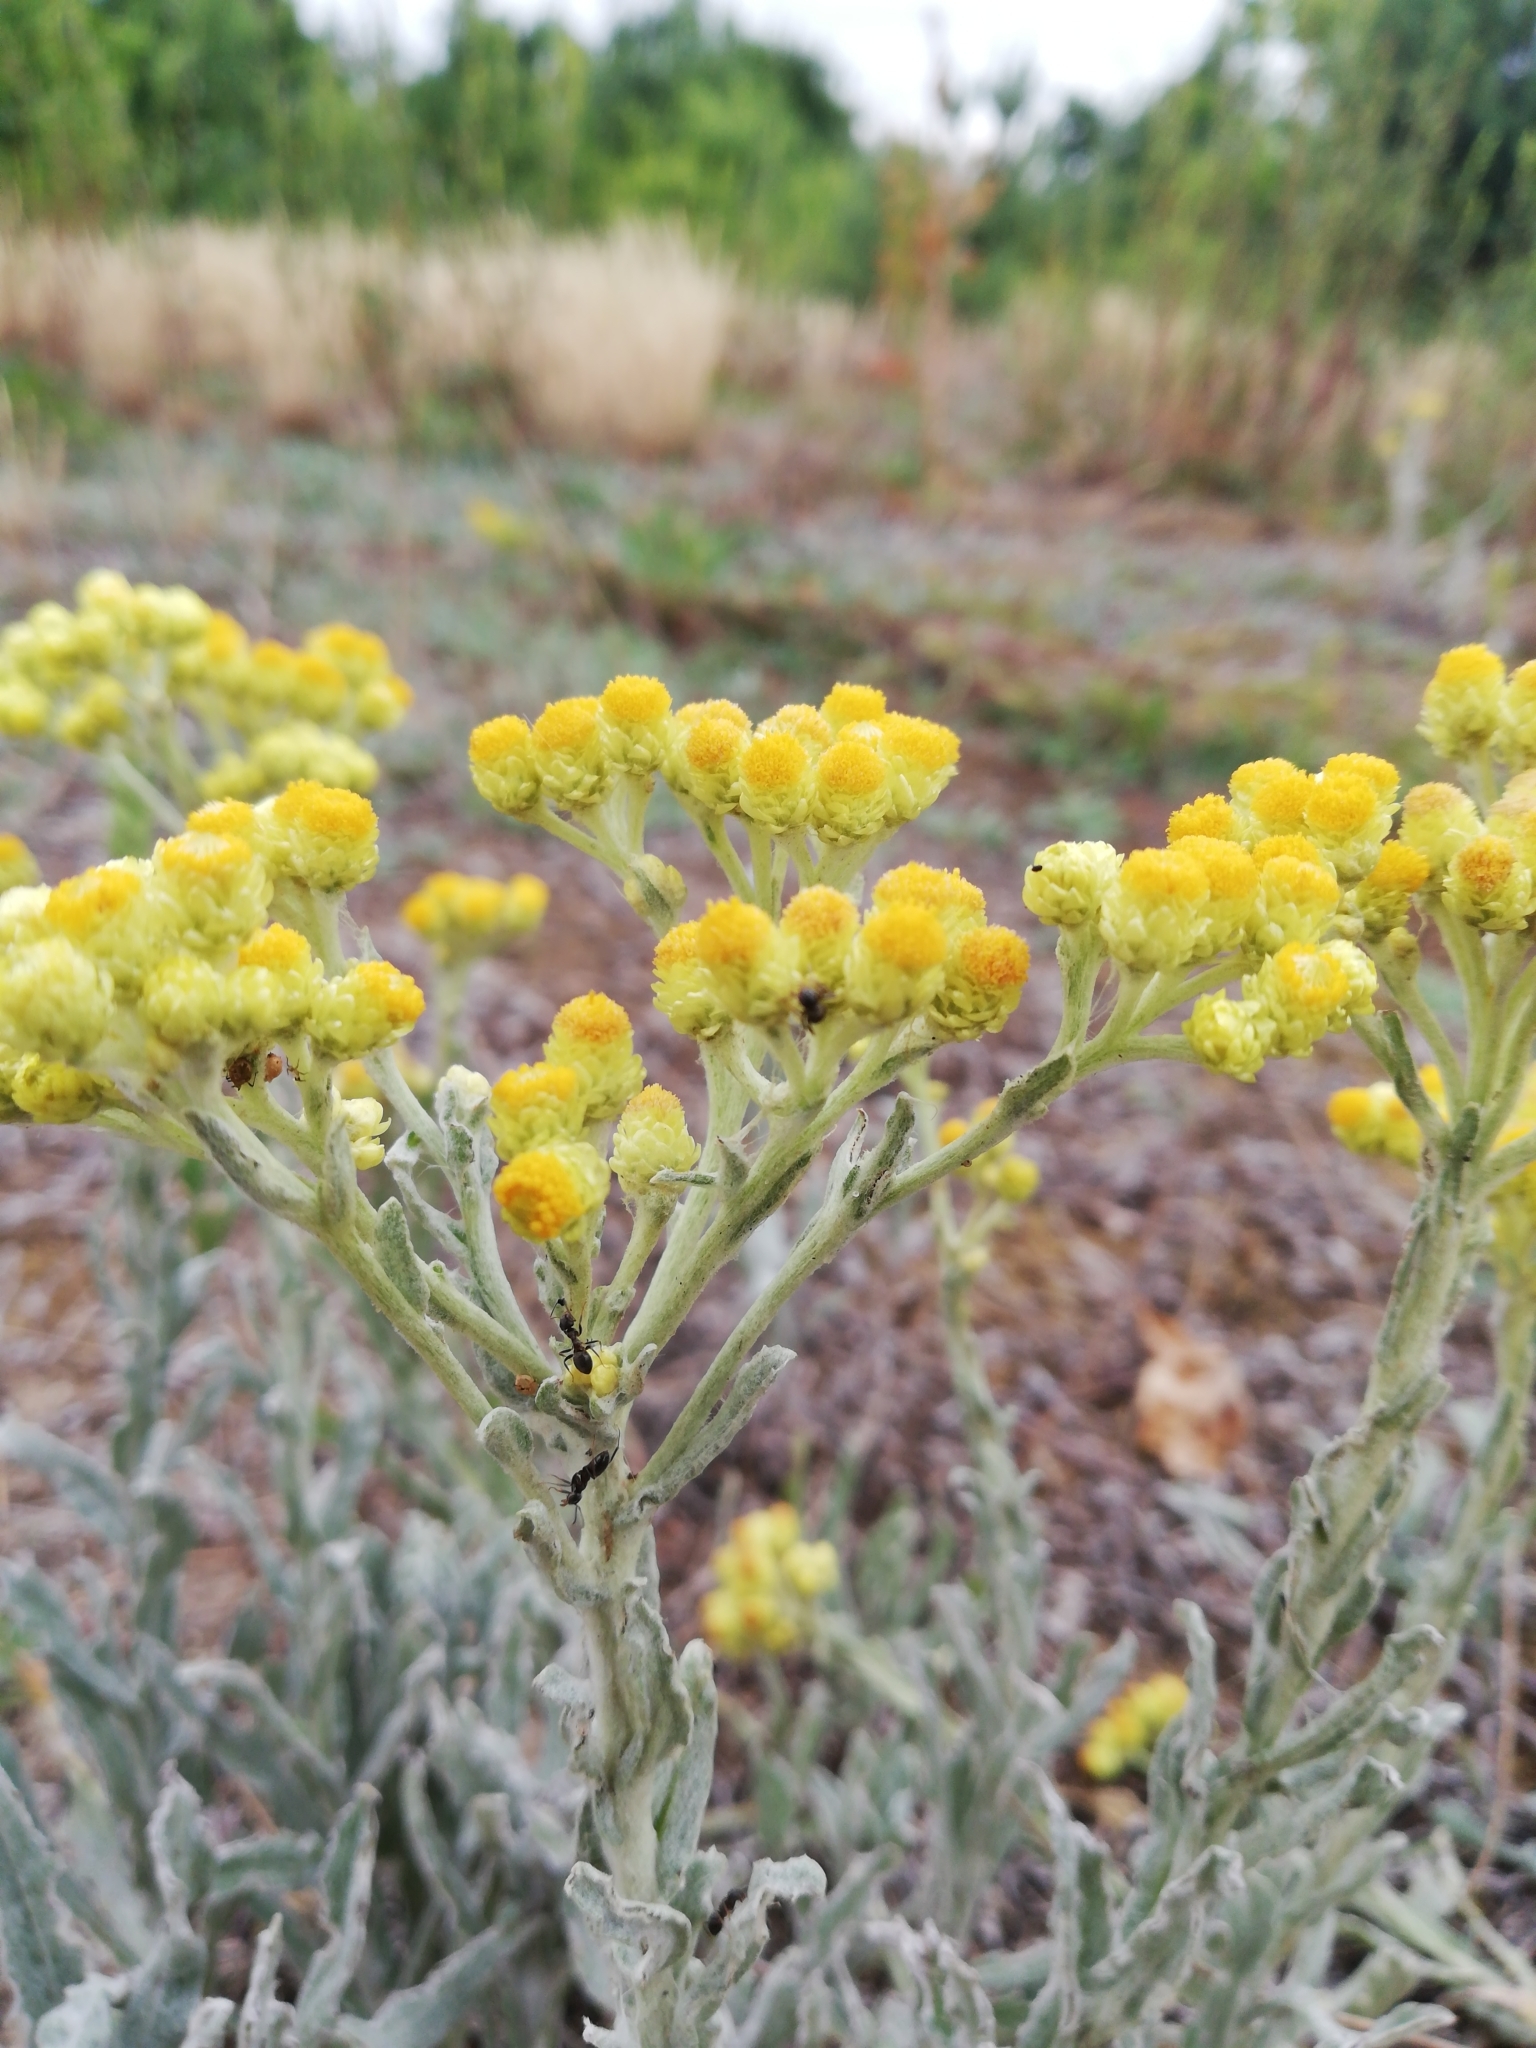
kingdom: Plantae
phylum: Tracheophyta
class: Magnoliopsida
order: Asterales
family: Asteraceae
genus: Helichrysum
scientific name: Helichrysum arenarium
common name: Strawflower
